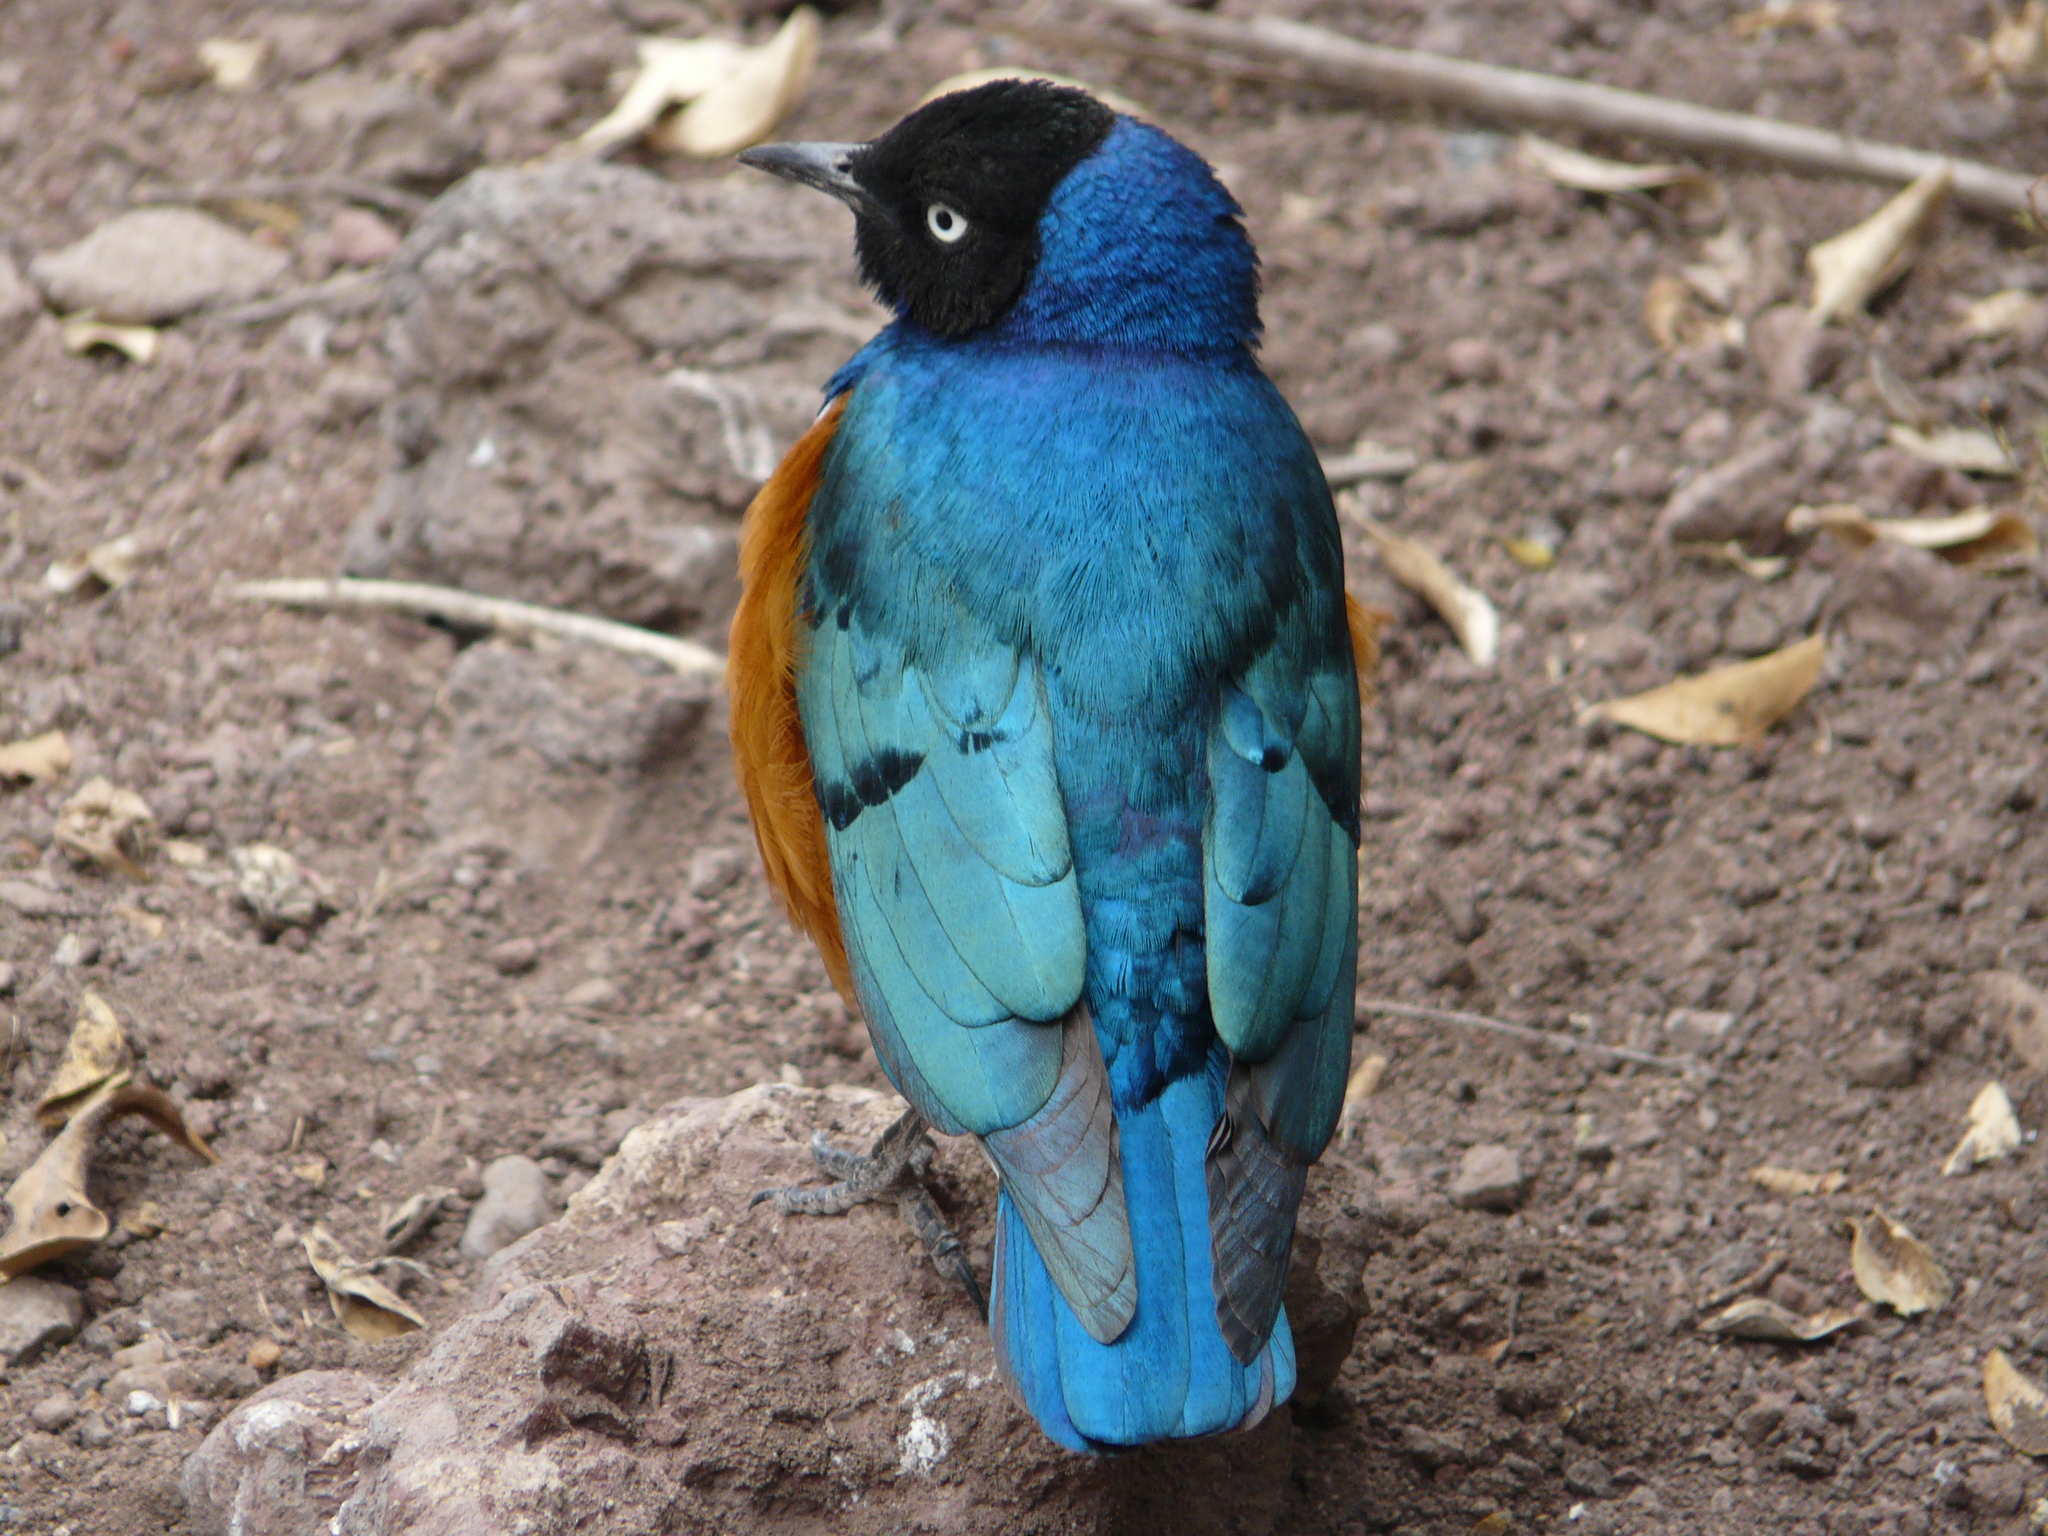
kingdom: Animalia
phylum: Chordata
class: Aves
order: Passeriformes
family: Sturnidae
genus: Lamprotornis
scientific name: Lamprotornis superbus
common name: Superb starling
